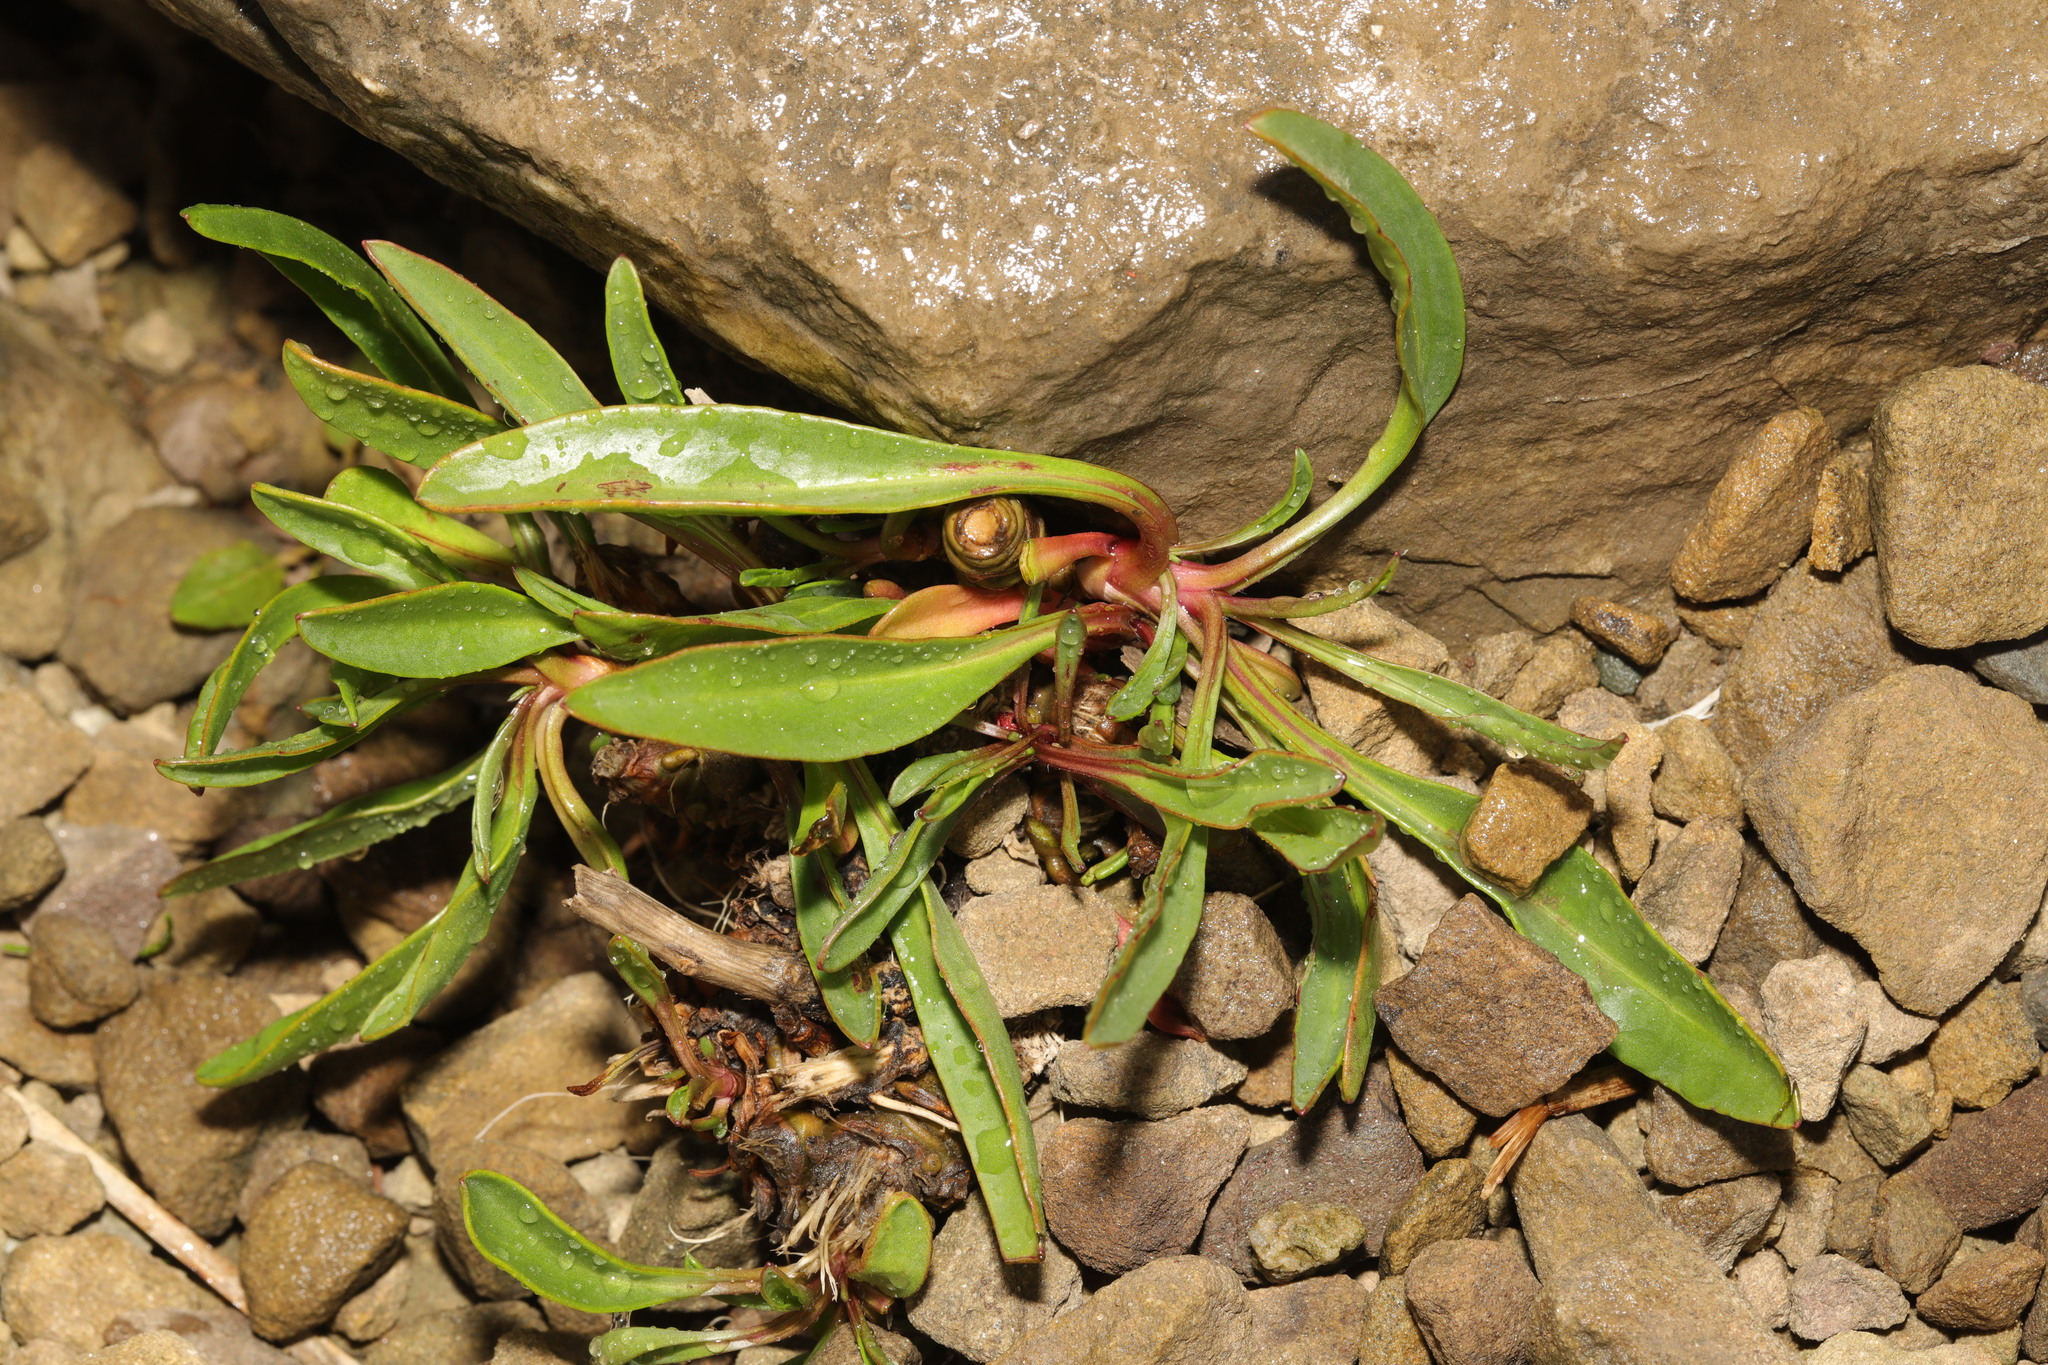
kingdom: Plantae
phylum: Tracheophyta
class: Magnoliopsida
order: Asterales
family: Asteraceae
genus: Tripolium
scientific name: Tripolium pannonicum
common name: Sea aster
